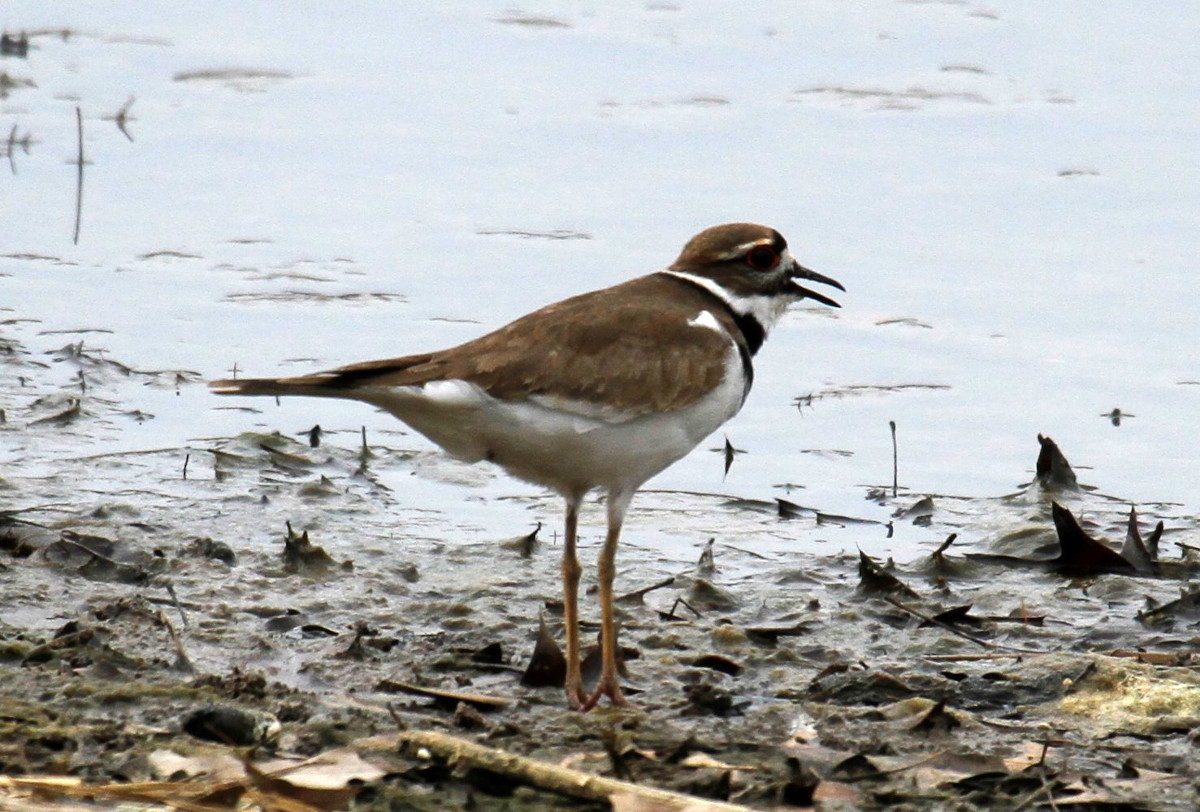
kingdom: Animalia
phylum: Chordata
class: Aves
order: Charadriiformes
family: Charadriidae
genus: Charadrius
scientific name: Charadrius vociferus
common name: Killdeer
